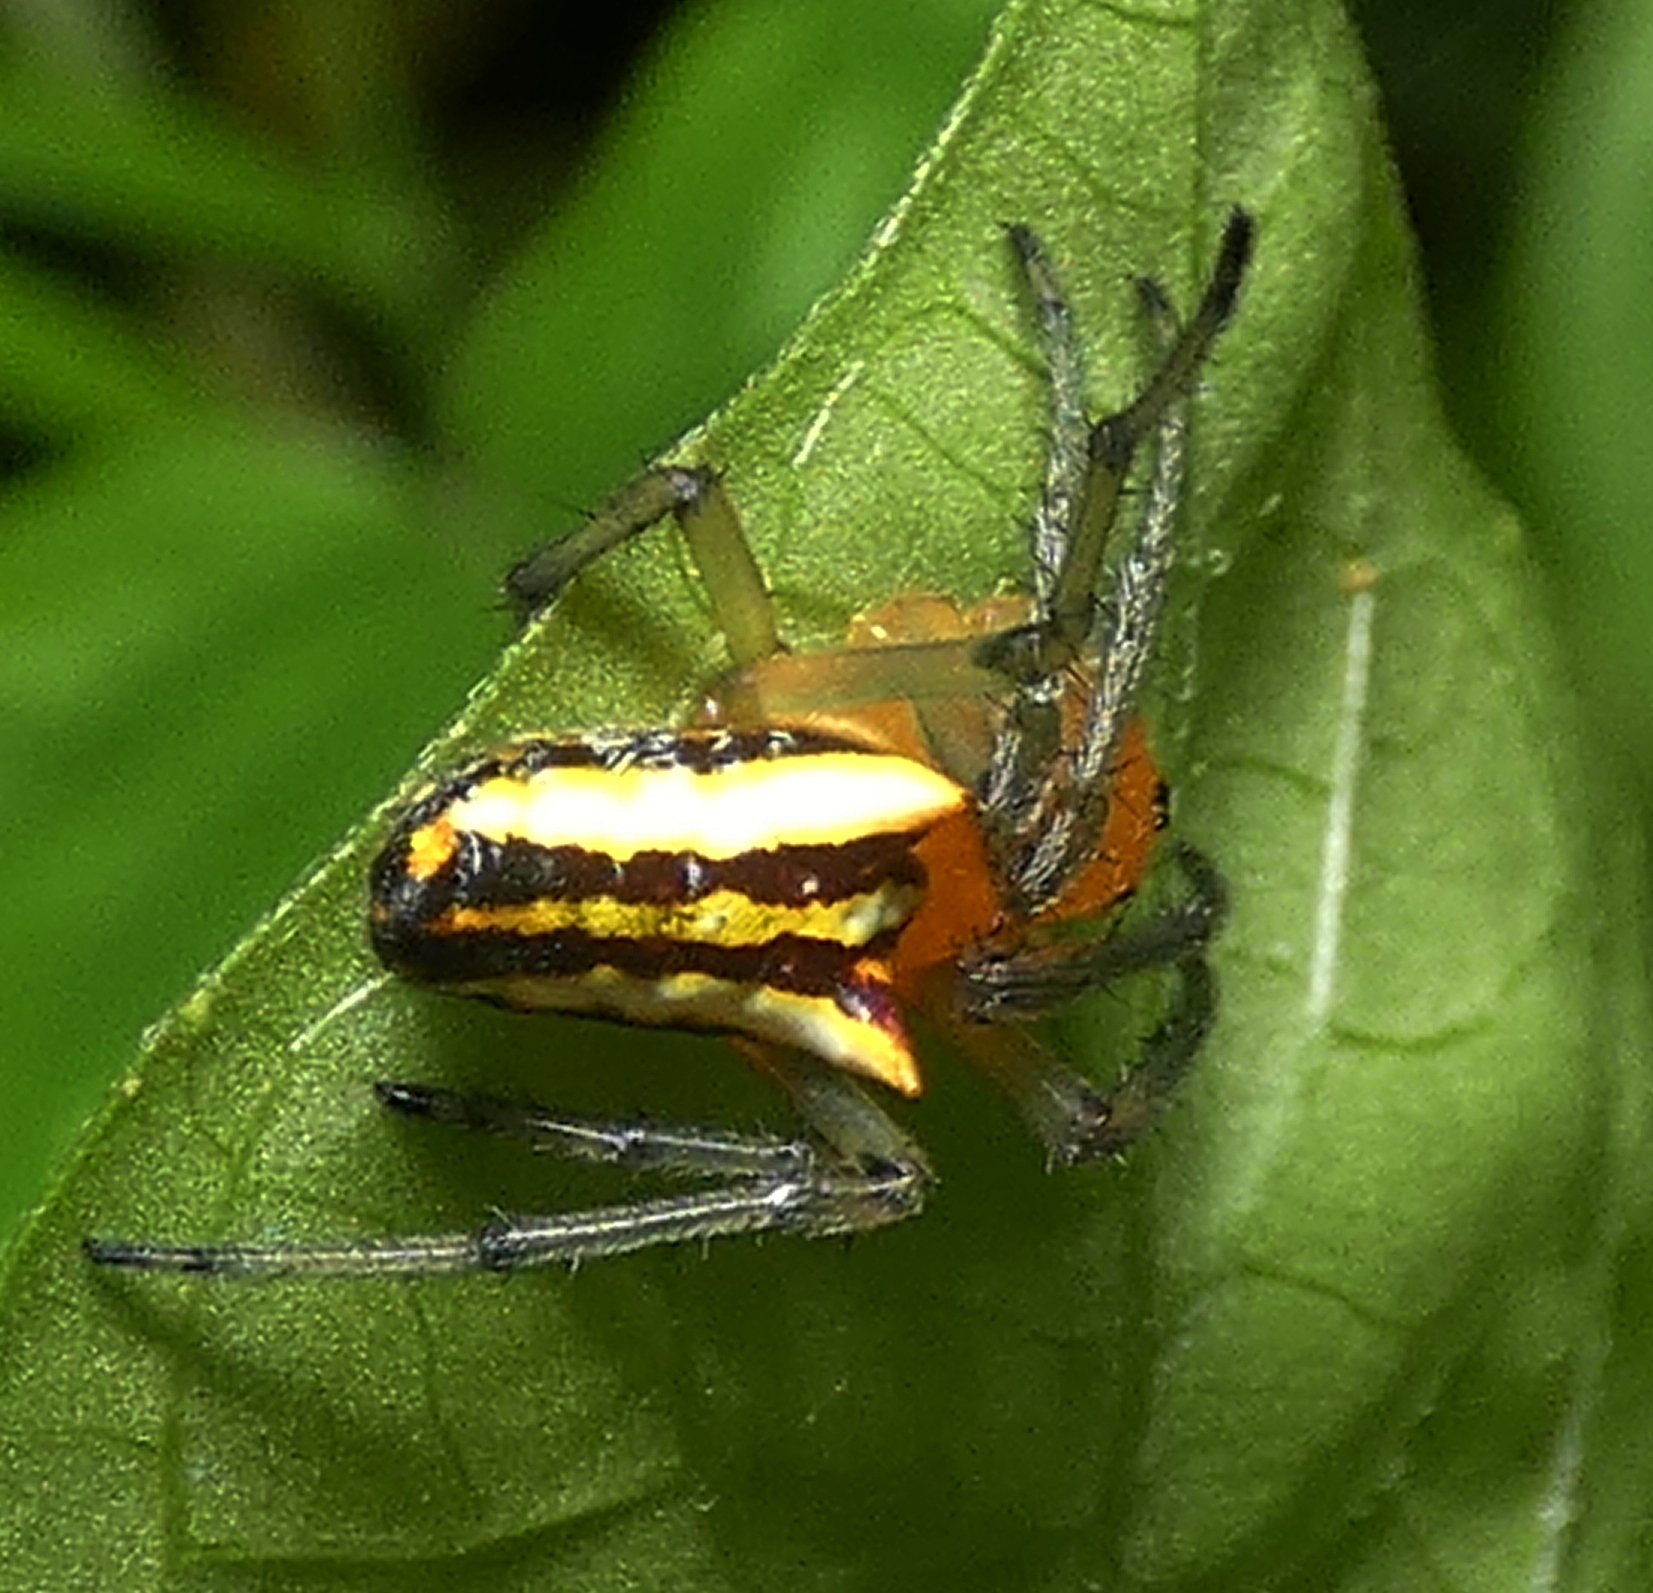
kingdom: Animalia
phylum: Arthropoda
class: Arachnida
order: Araneae
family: Araneidae
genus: Alpaida
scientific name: Alpaida bicornuta
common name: Orb weavers
